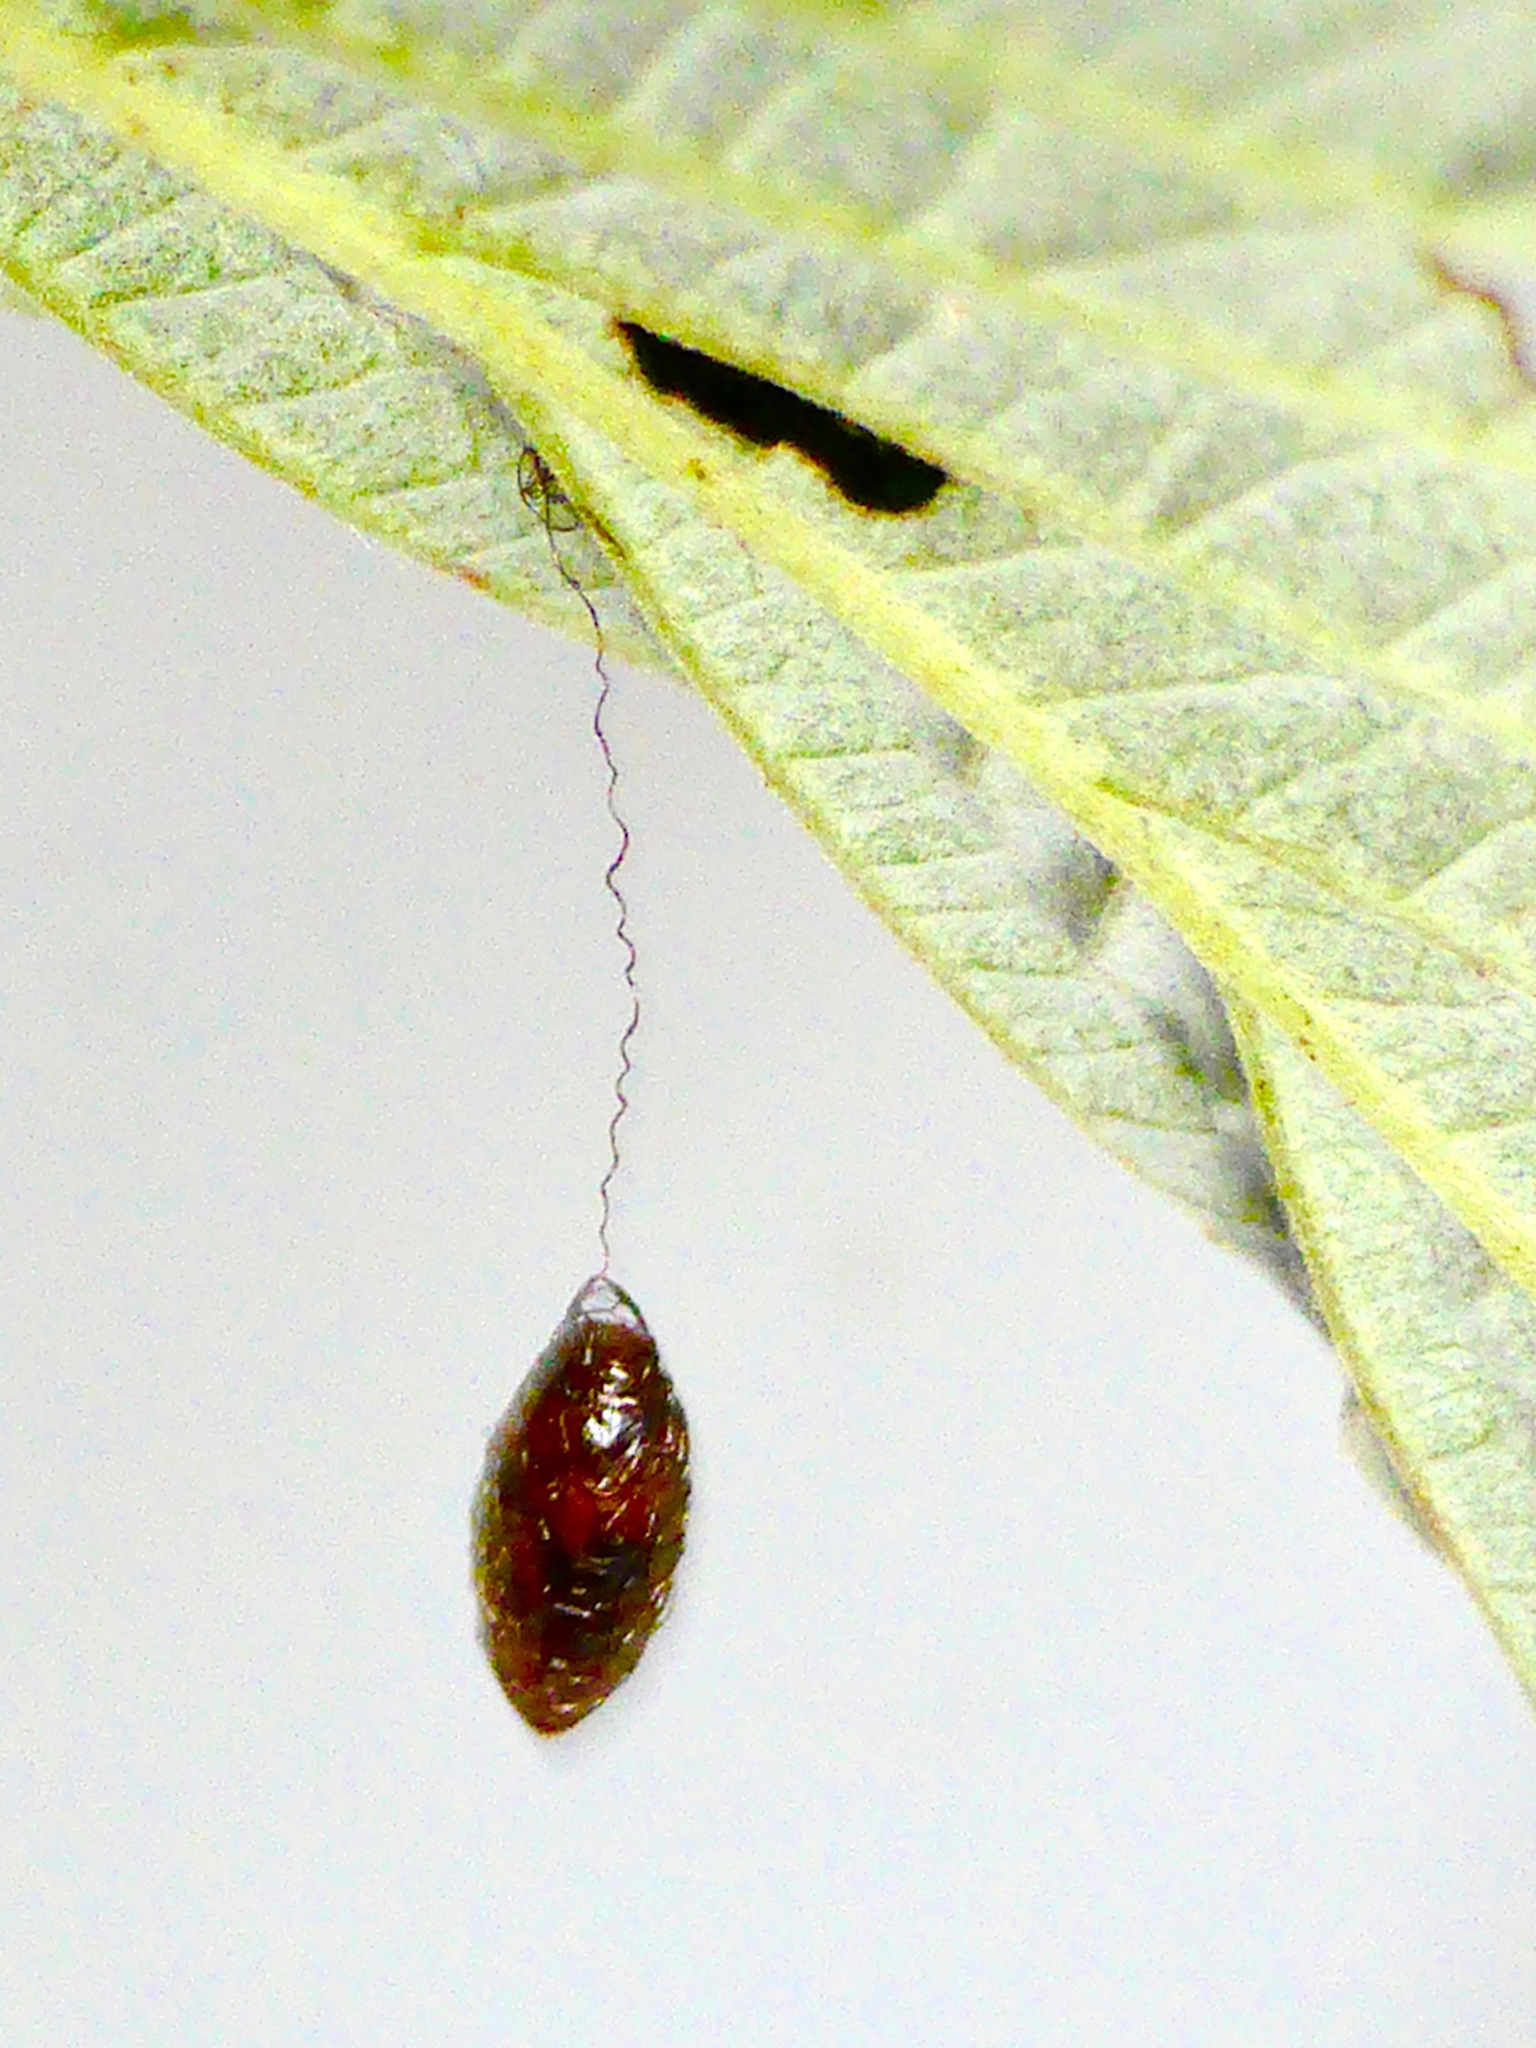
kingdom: Animalia
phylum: Arthropoda
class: Insecta
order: Hymenoptera
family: Braconidae
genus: Meteorus
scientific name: Meteorus pulchricornis
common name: Braconid wasp
